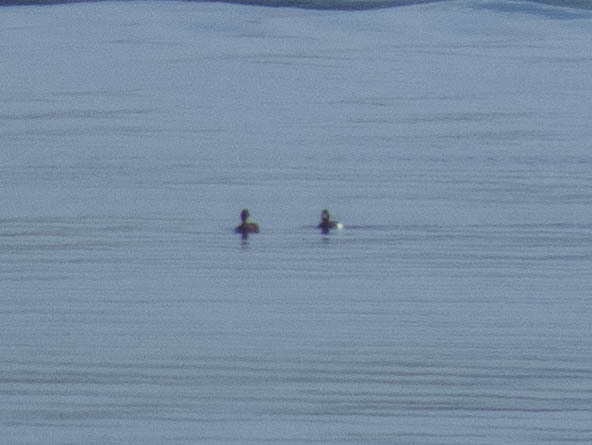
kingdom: Animalia
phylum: Chordata
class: Aves
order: Anseriformes
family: Anatidae
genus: Aythya
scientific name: Aythya fuligula
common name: Tufted duck
